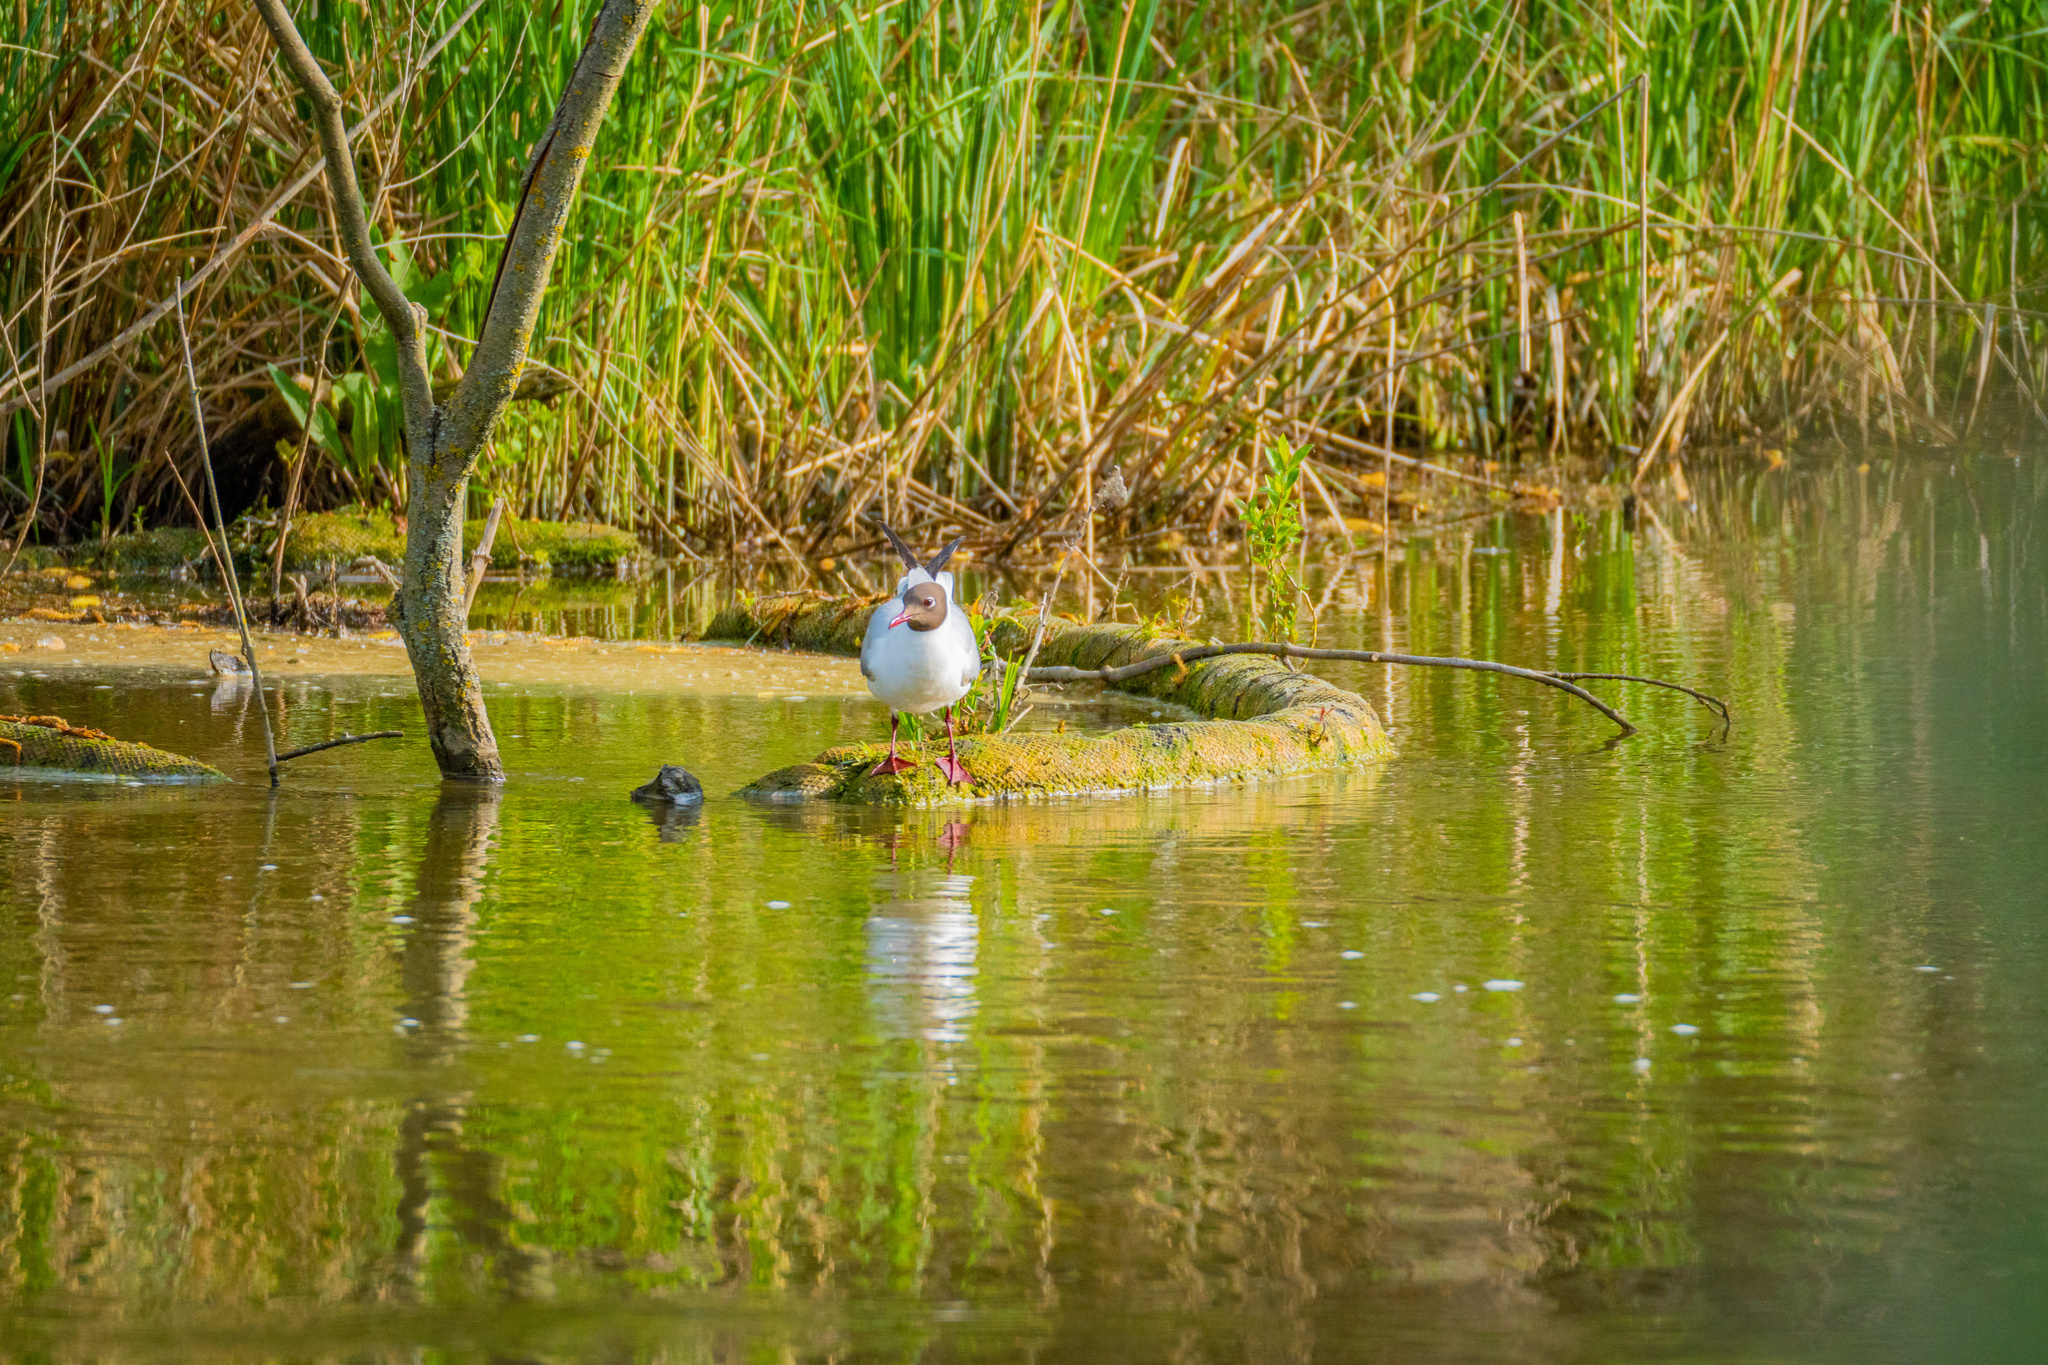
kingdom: Animalia
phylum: Chordata
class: Aves
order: Charadriiformes
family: Laridae
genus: Chroicocephalus
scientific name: Chroicocephalus ridibundus
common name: Black-headed gull
